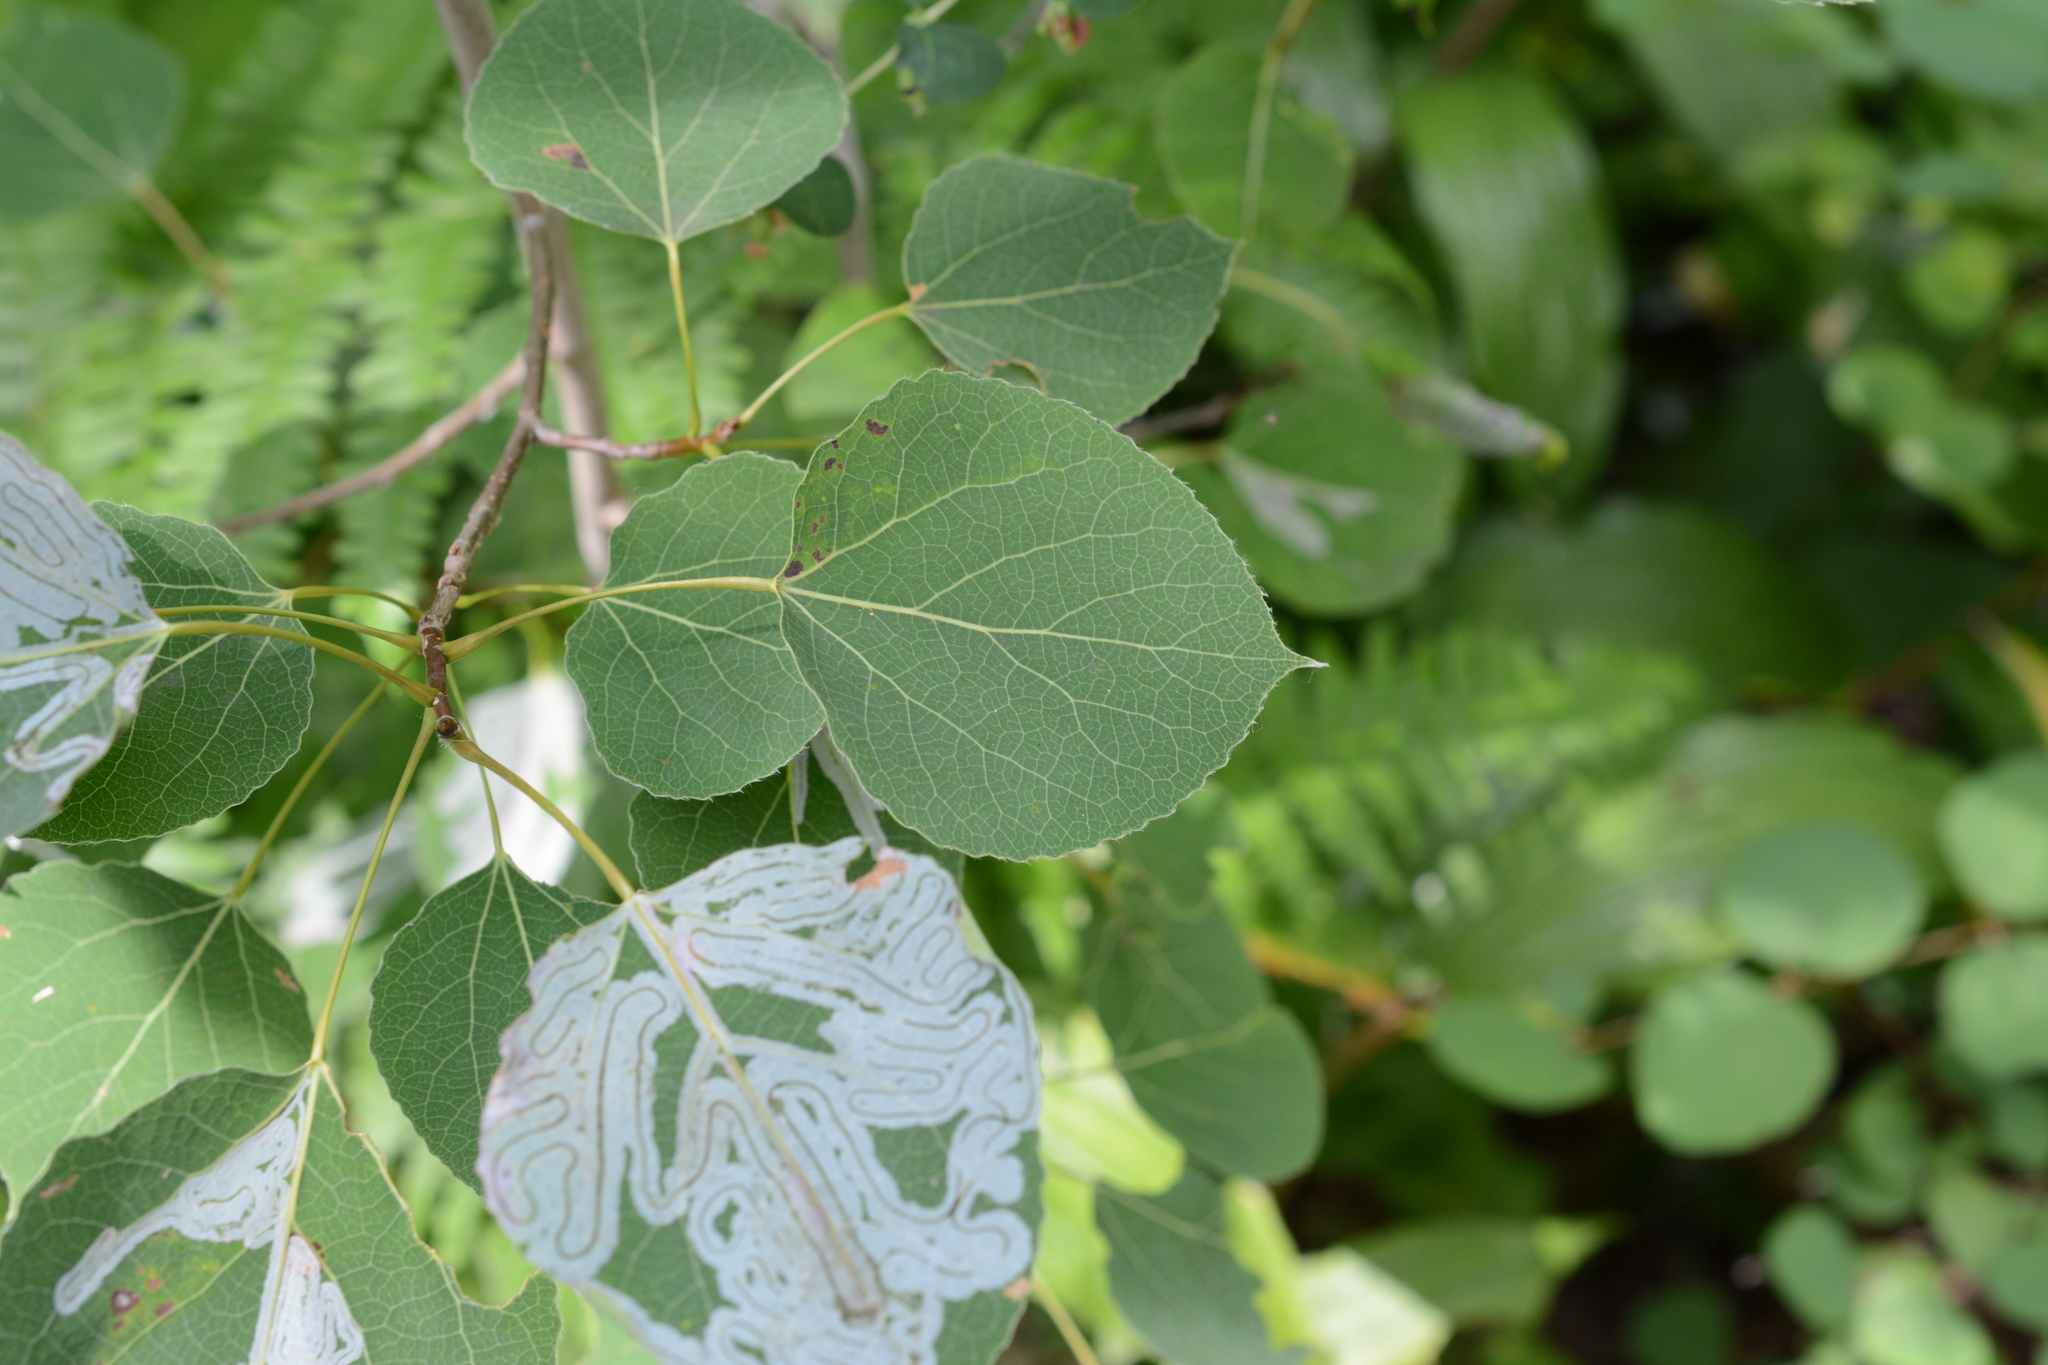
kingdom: Plantae
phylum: Tracheophyta
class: Magnoliopsida
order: Malpighiales
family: Salicaceae
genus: Populus
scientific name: Populus tremuloides
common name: Quaking aspen
